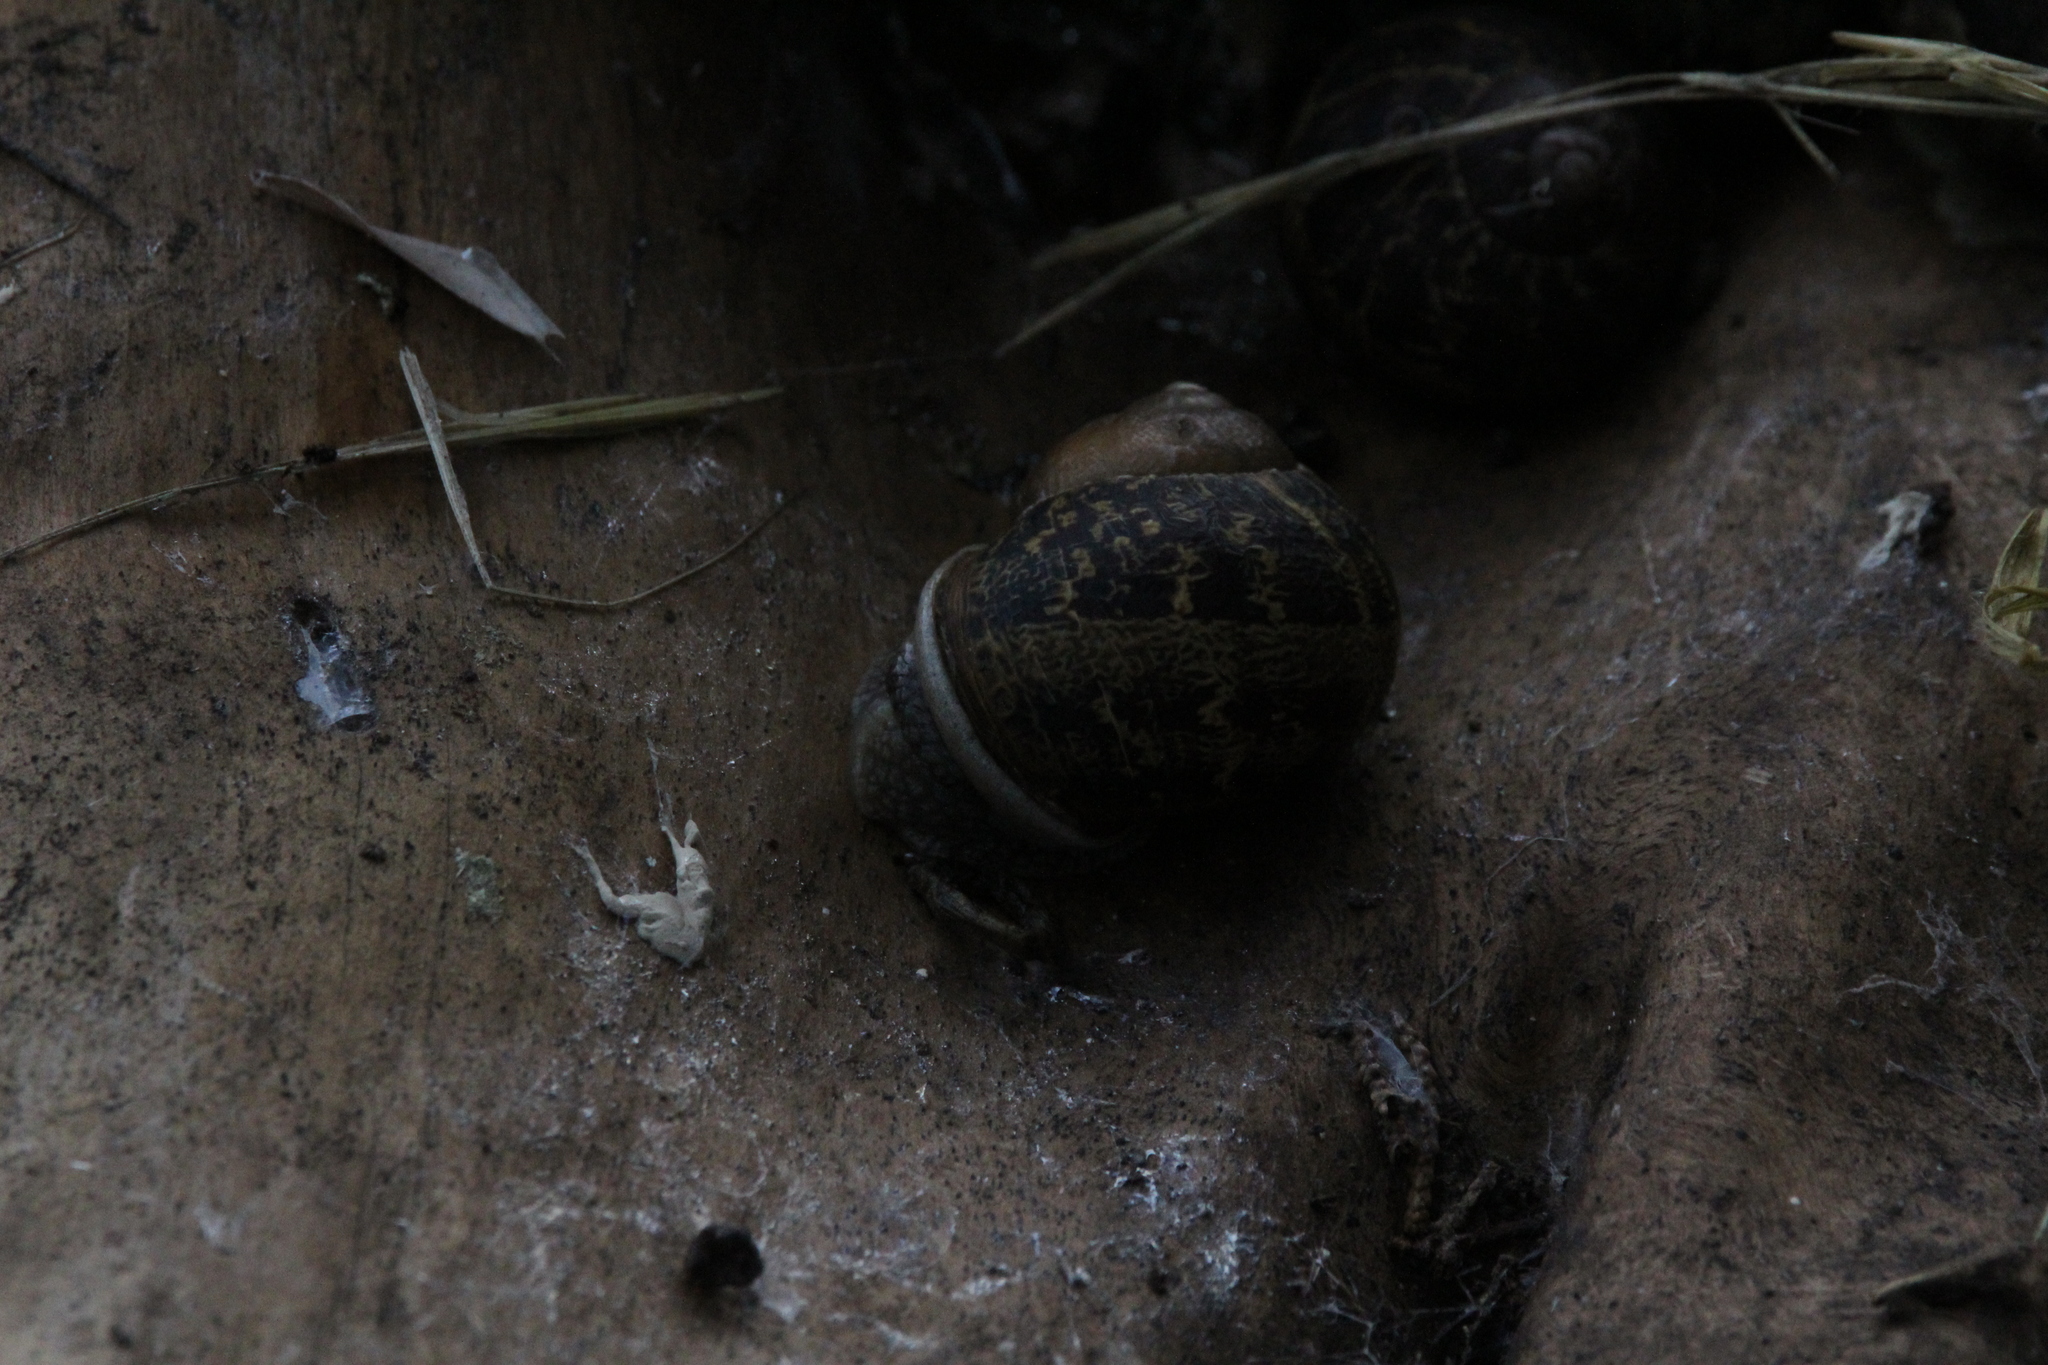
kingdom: Animalia
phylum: Mollusca
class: Gastropoda
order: Stylommatophora
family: Helicidae
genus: Cornu
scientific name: Cornu aspersum
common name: Brown garden snail
